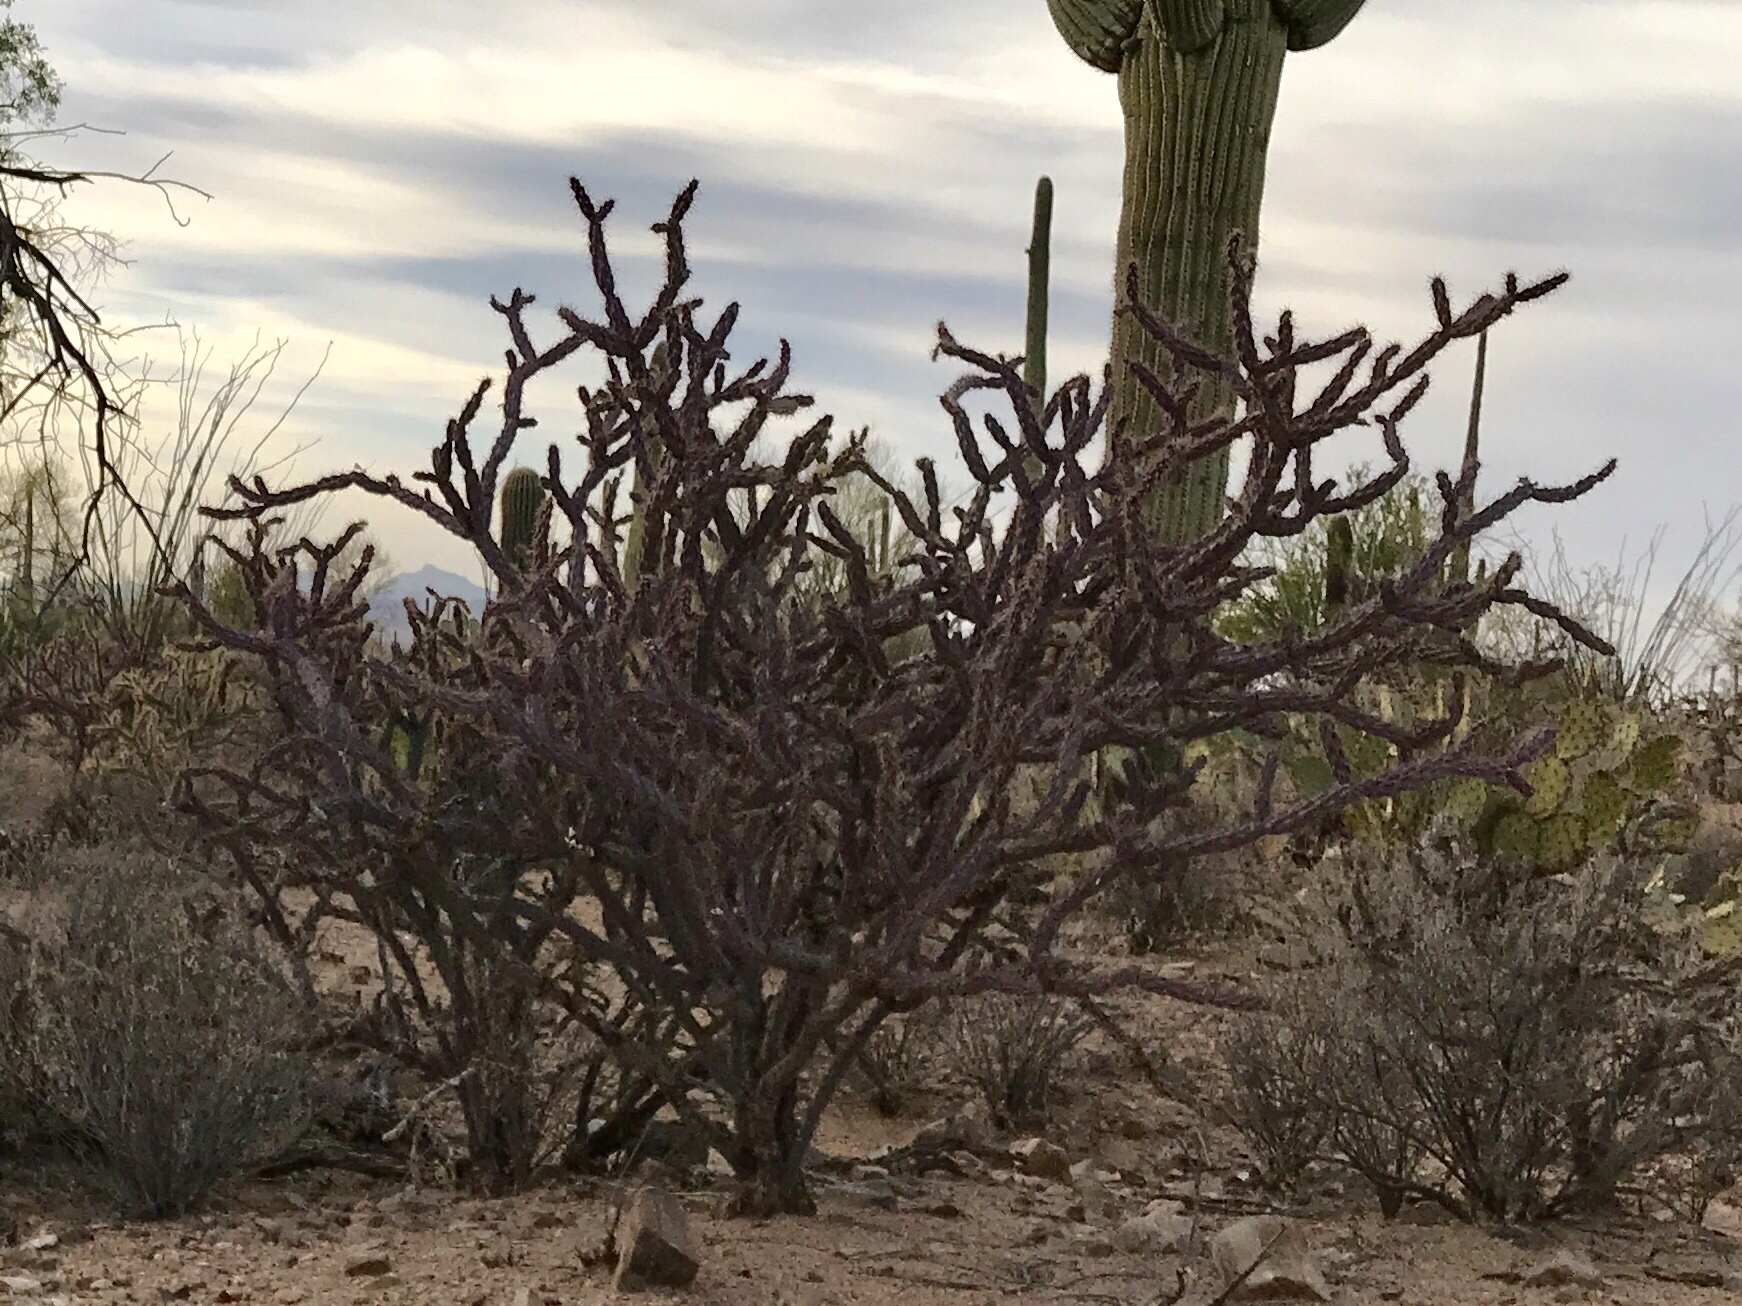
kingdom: Plantae
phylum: Tracheophyta
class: Magnoliopsida
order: Caryophyllales
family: Cactaceae
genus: Cylindropuntia
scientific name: Cylindropuntia thurberi
